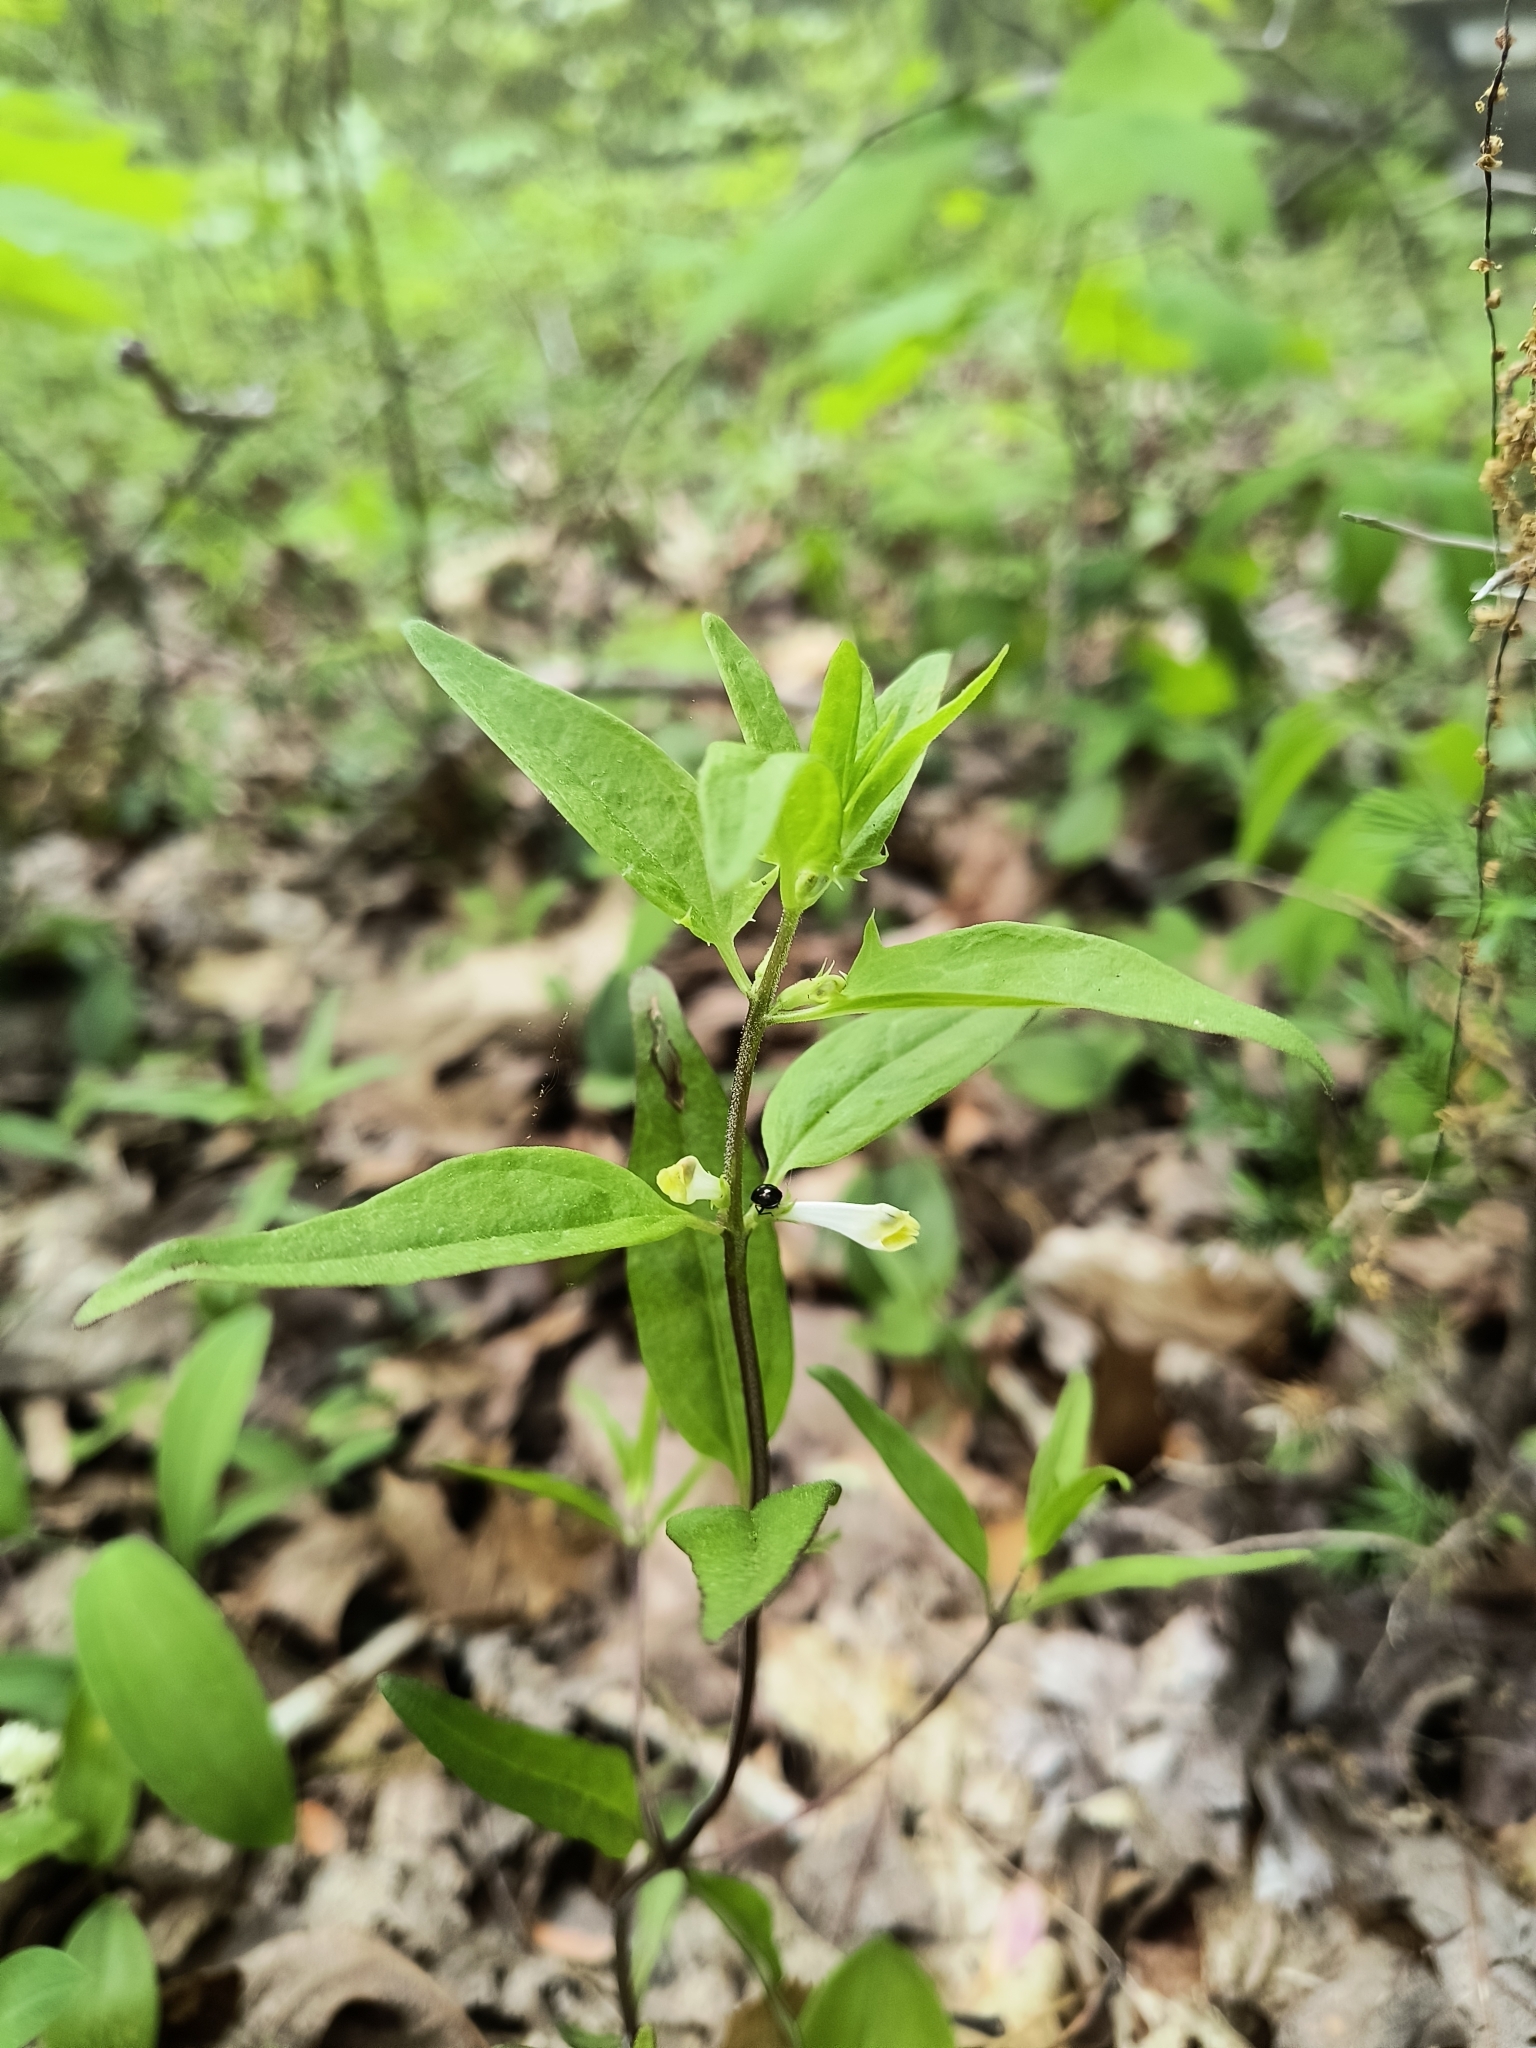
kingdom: Plantae
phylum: Tracheophyta
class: Magnoliopsida
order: Lamiales
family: Orobanchaceae
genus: Melampyrum
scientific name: Melampyrum lineare
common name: American cow-wheat
